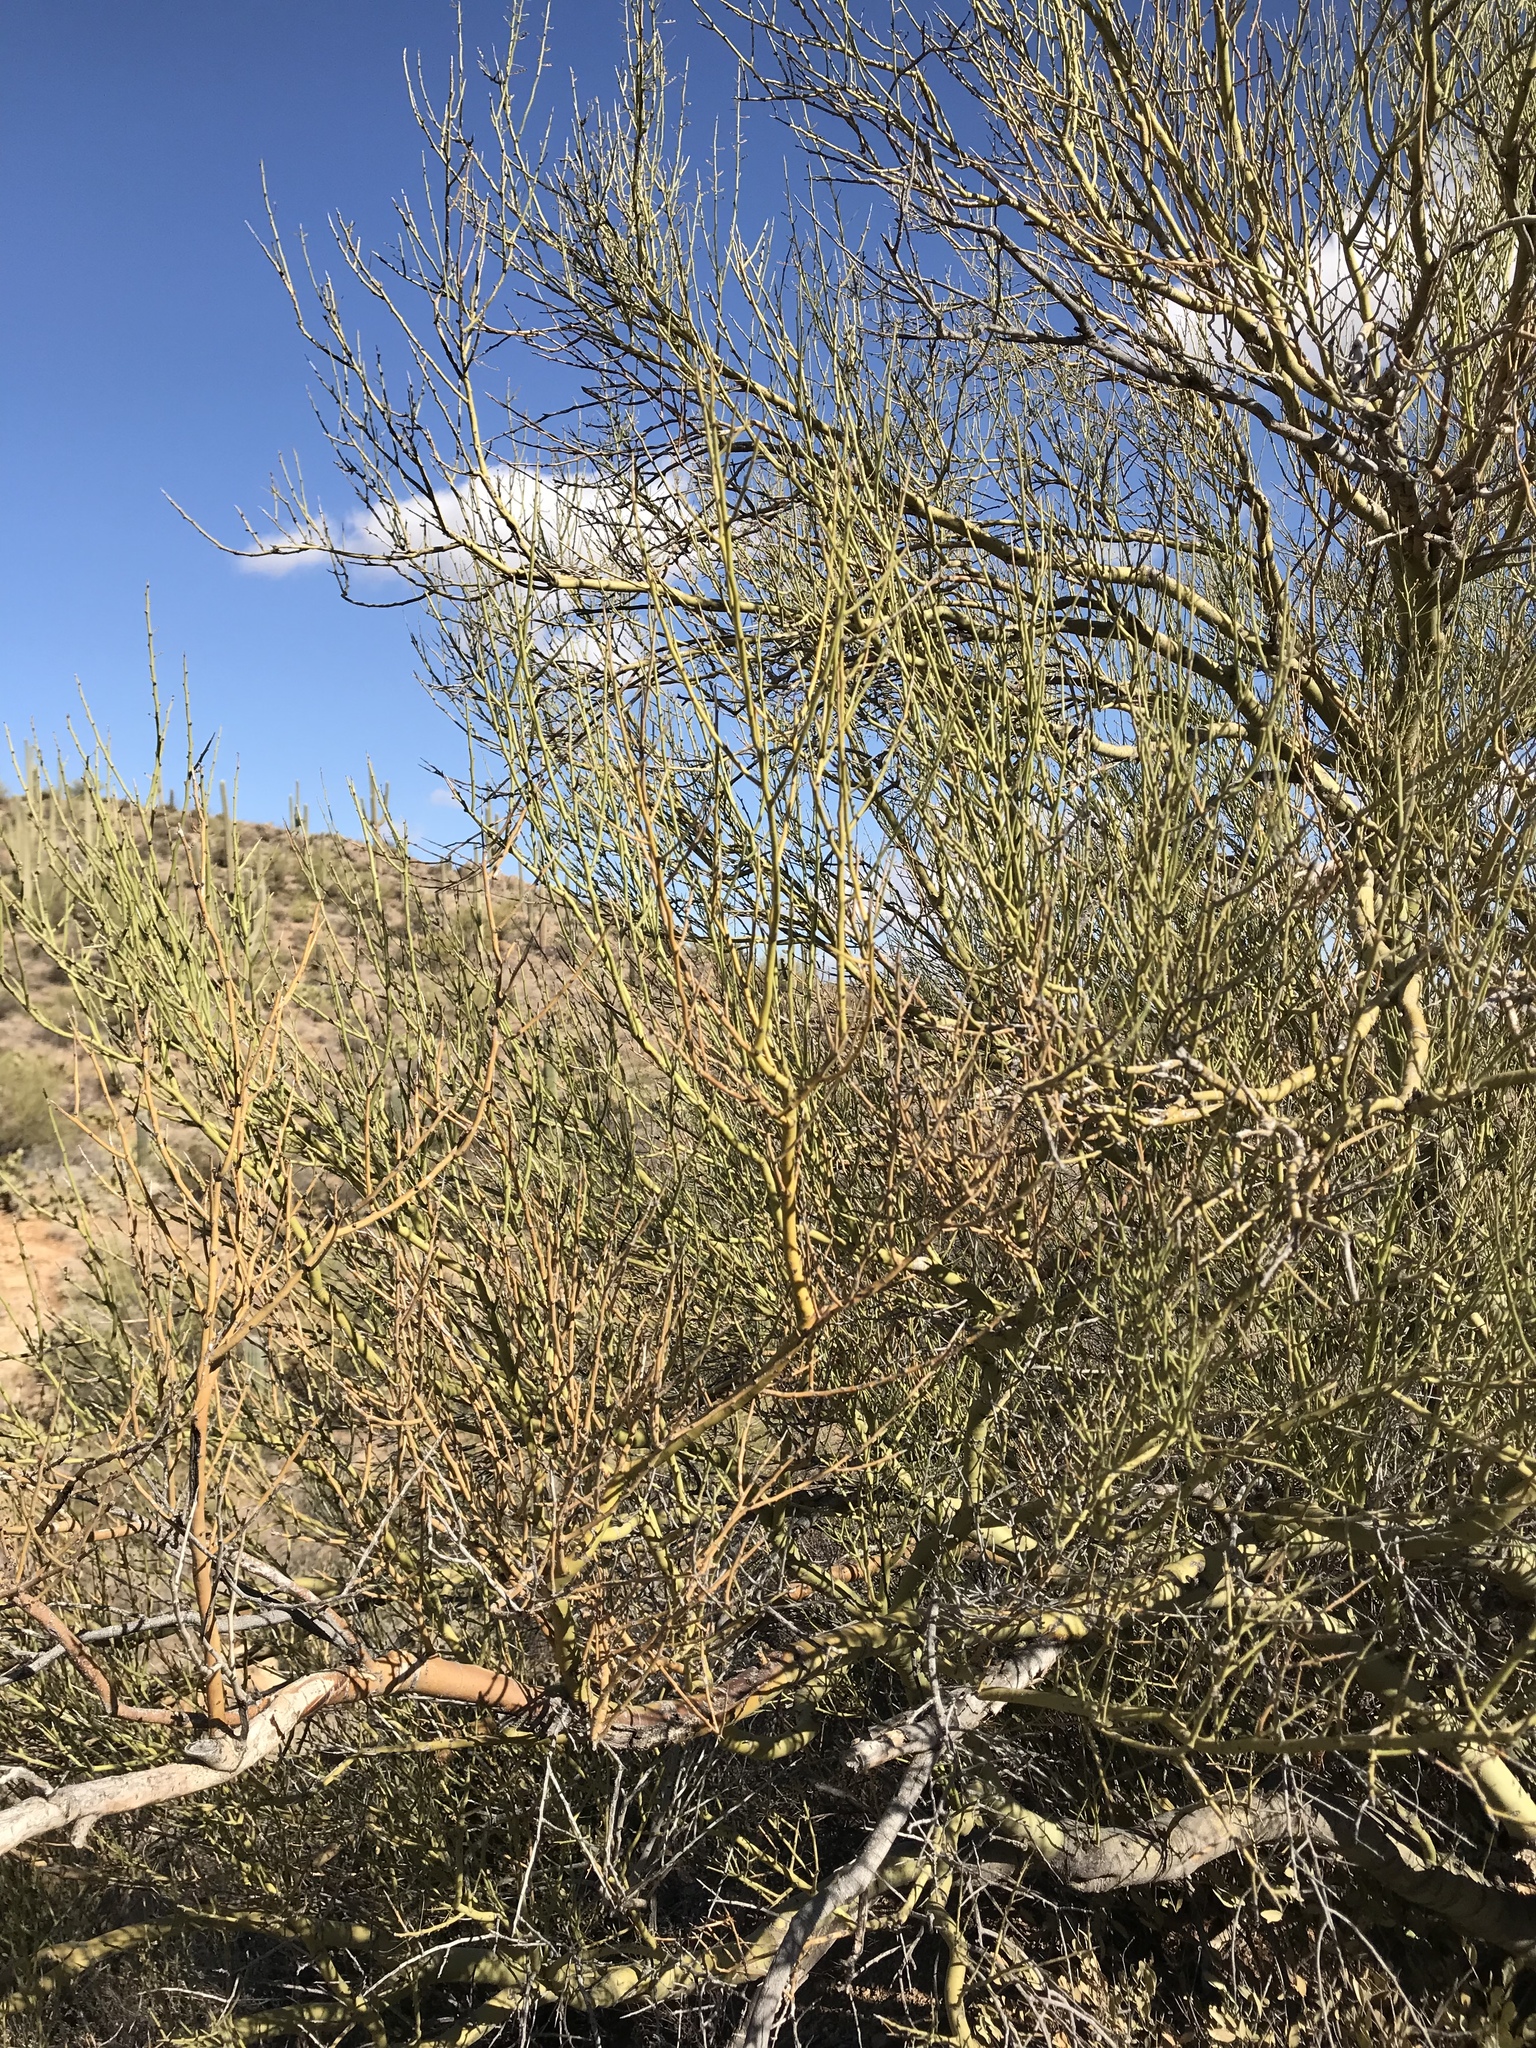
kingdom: Plantae
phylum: Tracheophyta
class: Magnoliopsida
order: Fabales
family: Fabaceae
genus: Parkinsonia
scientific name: Parkinsonia microphylla
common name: Yellow paloverde
